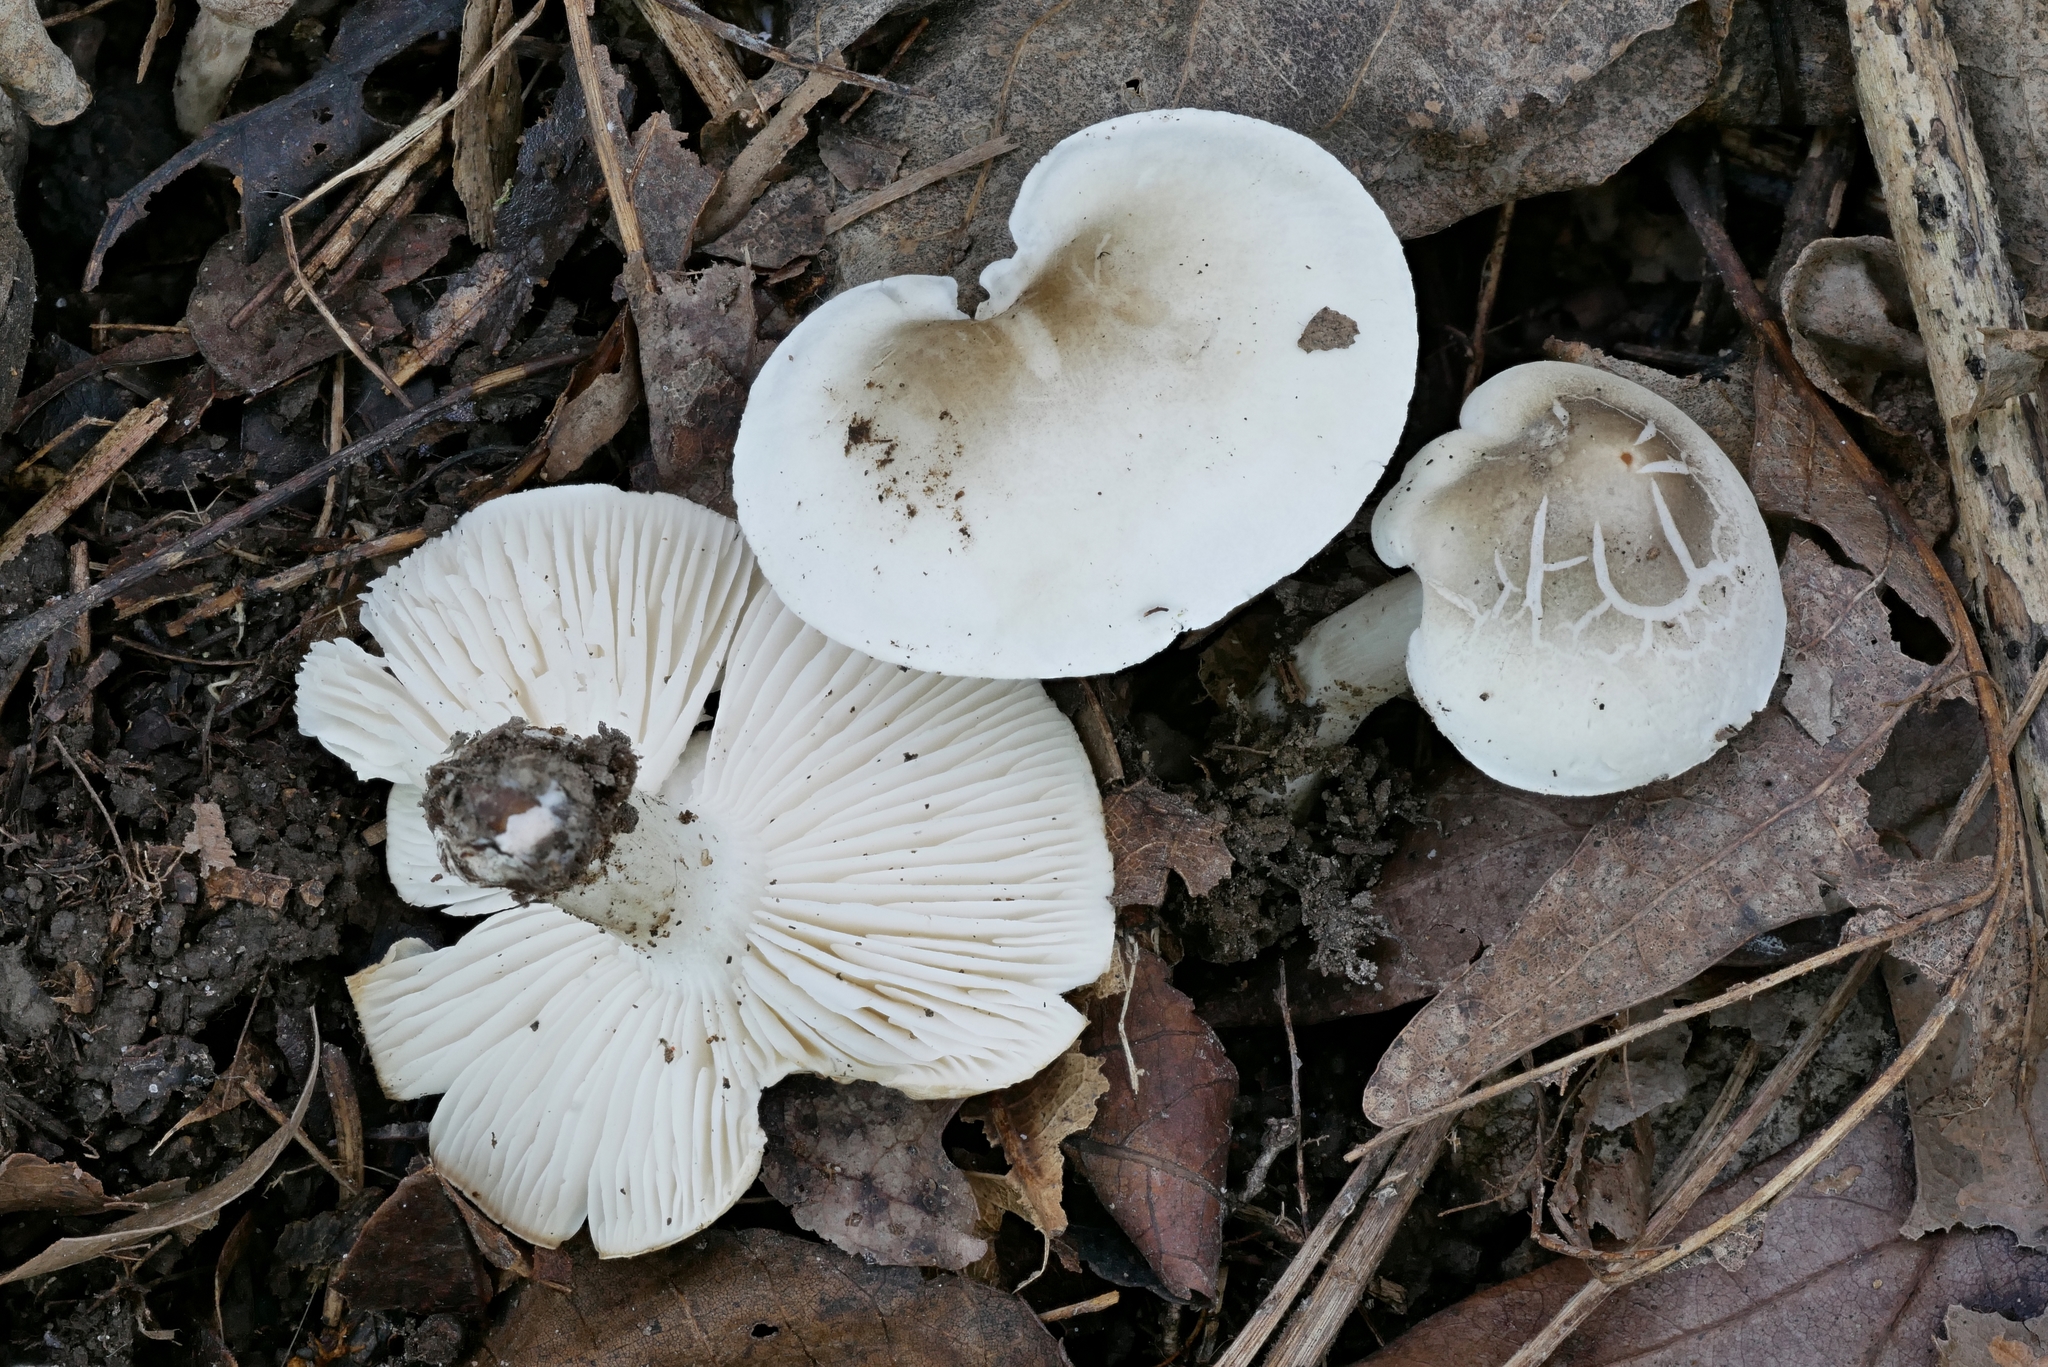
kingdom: Fungi
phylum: Basidiomycota
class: Agaricomycetes
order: Agaricales
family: Tricholomataceae
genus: Tricholoma
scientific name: Tricholoma
